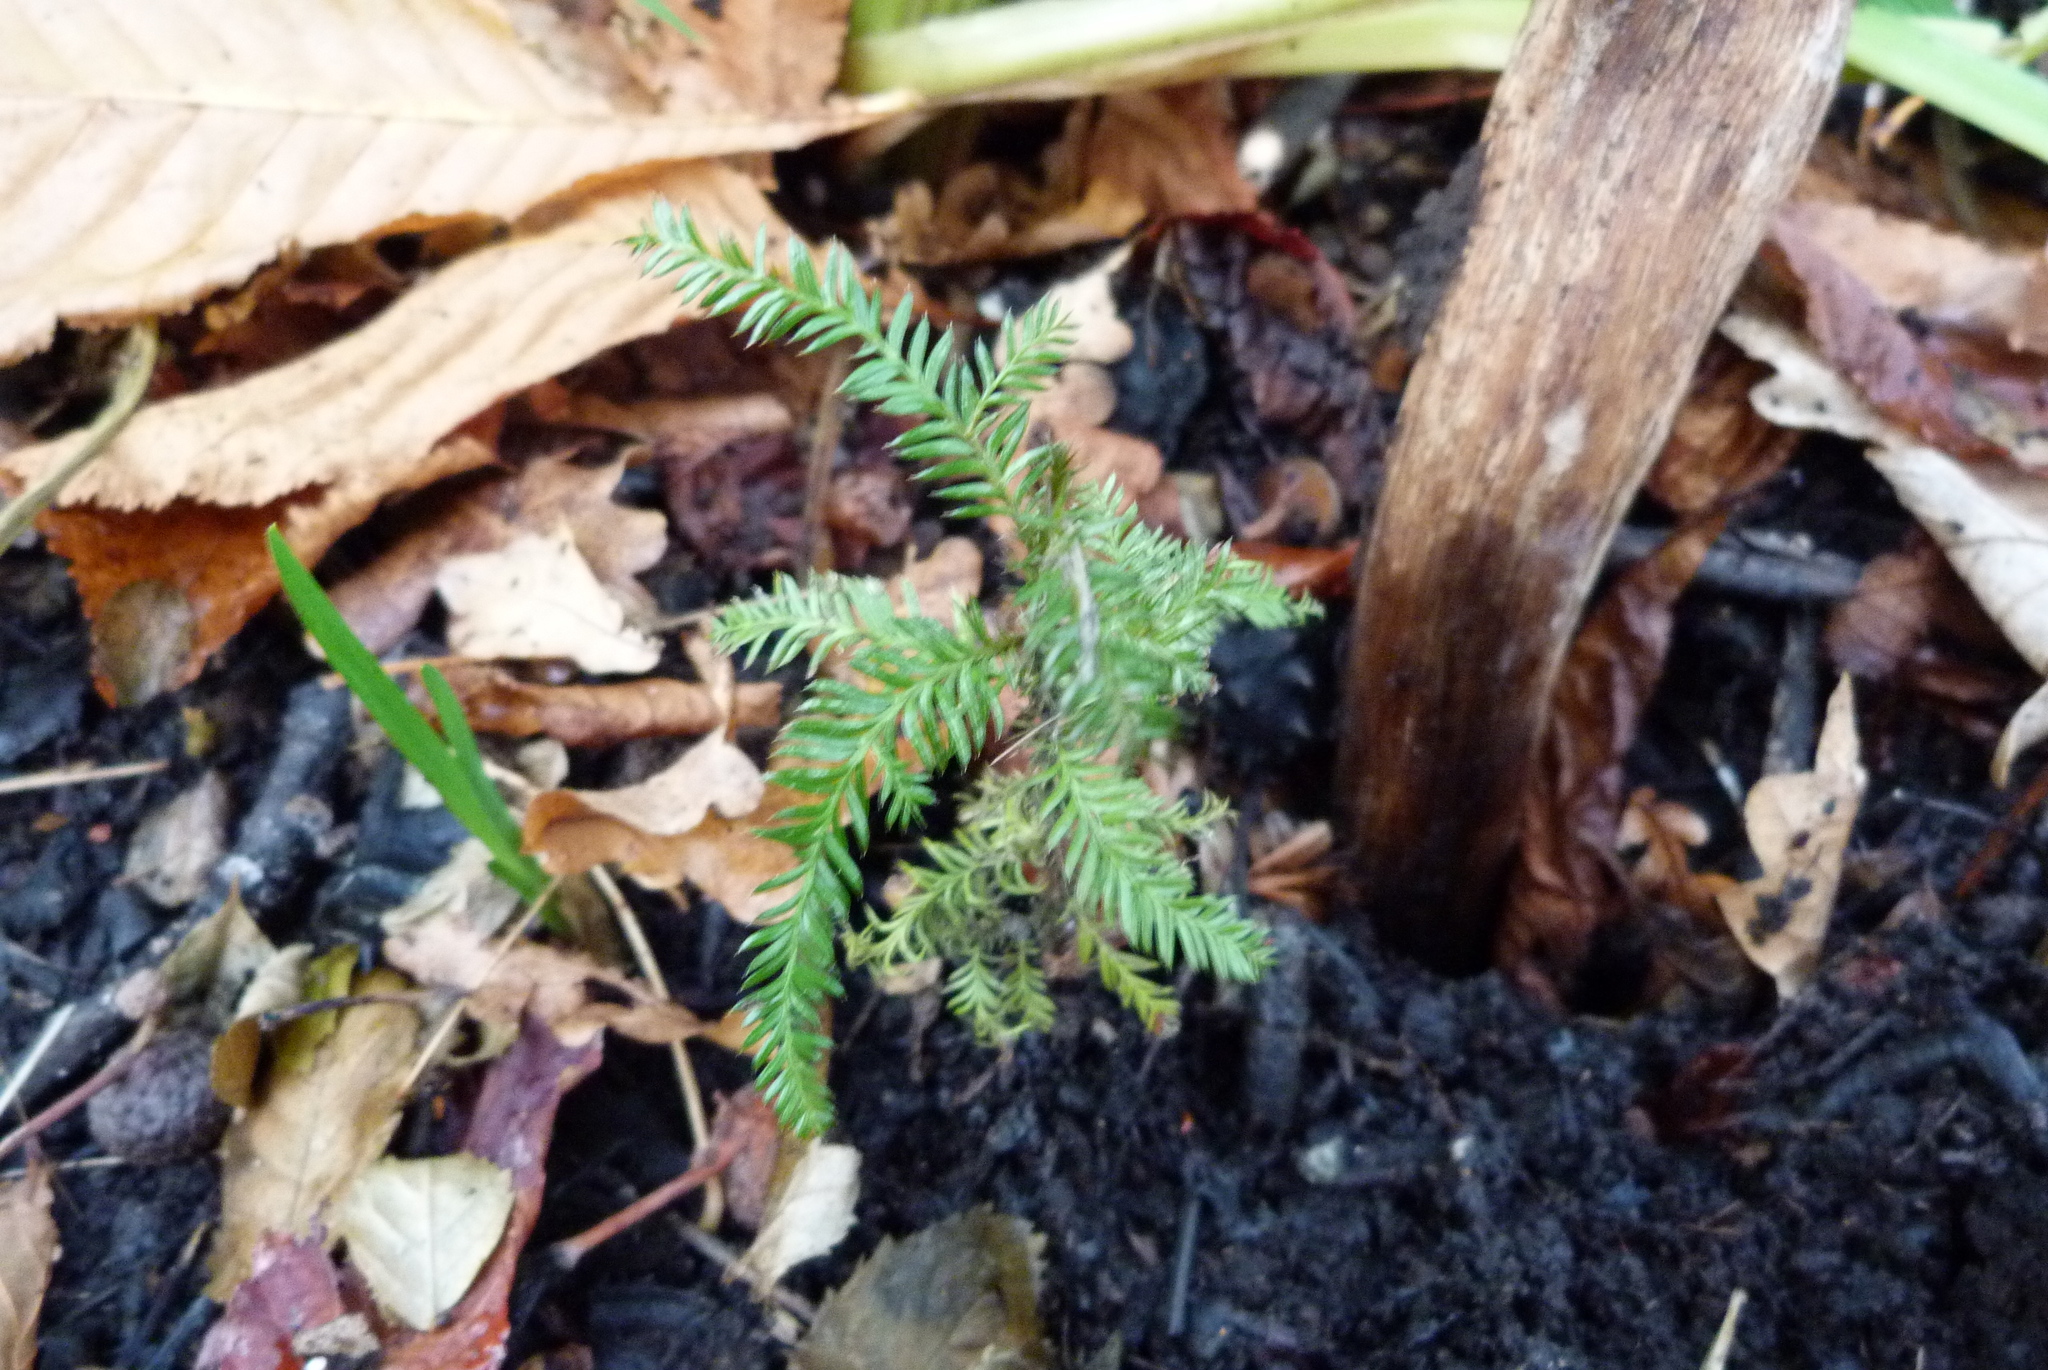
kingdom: Plantae
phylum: Tracheophyta
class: Pinopsida
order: Pinales
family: Podocarpaceae
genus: Dacrycarpus
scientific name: Dacrycarpus dacrydioides
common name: White pine
